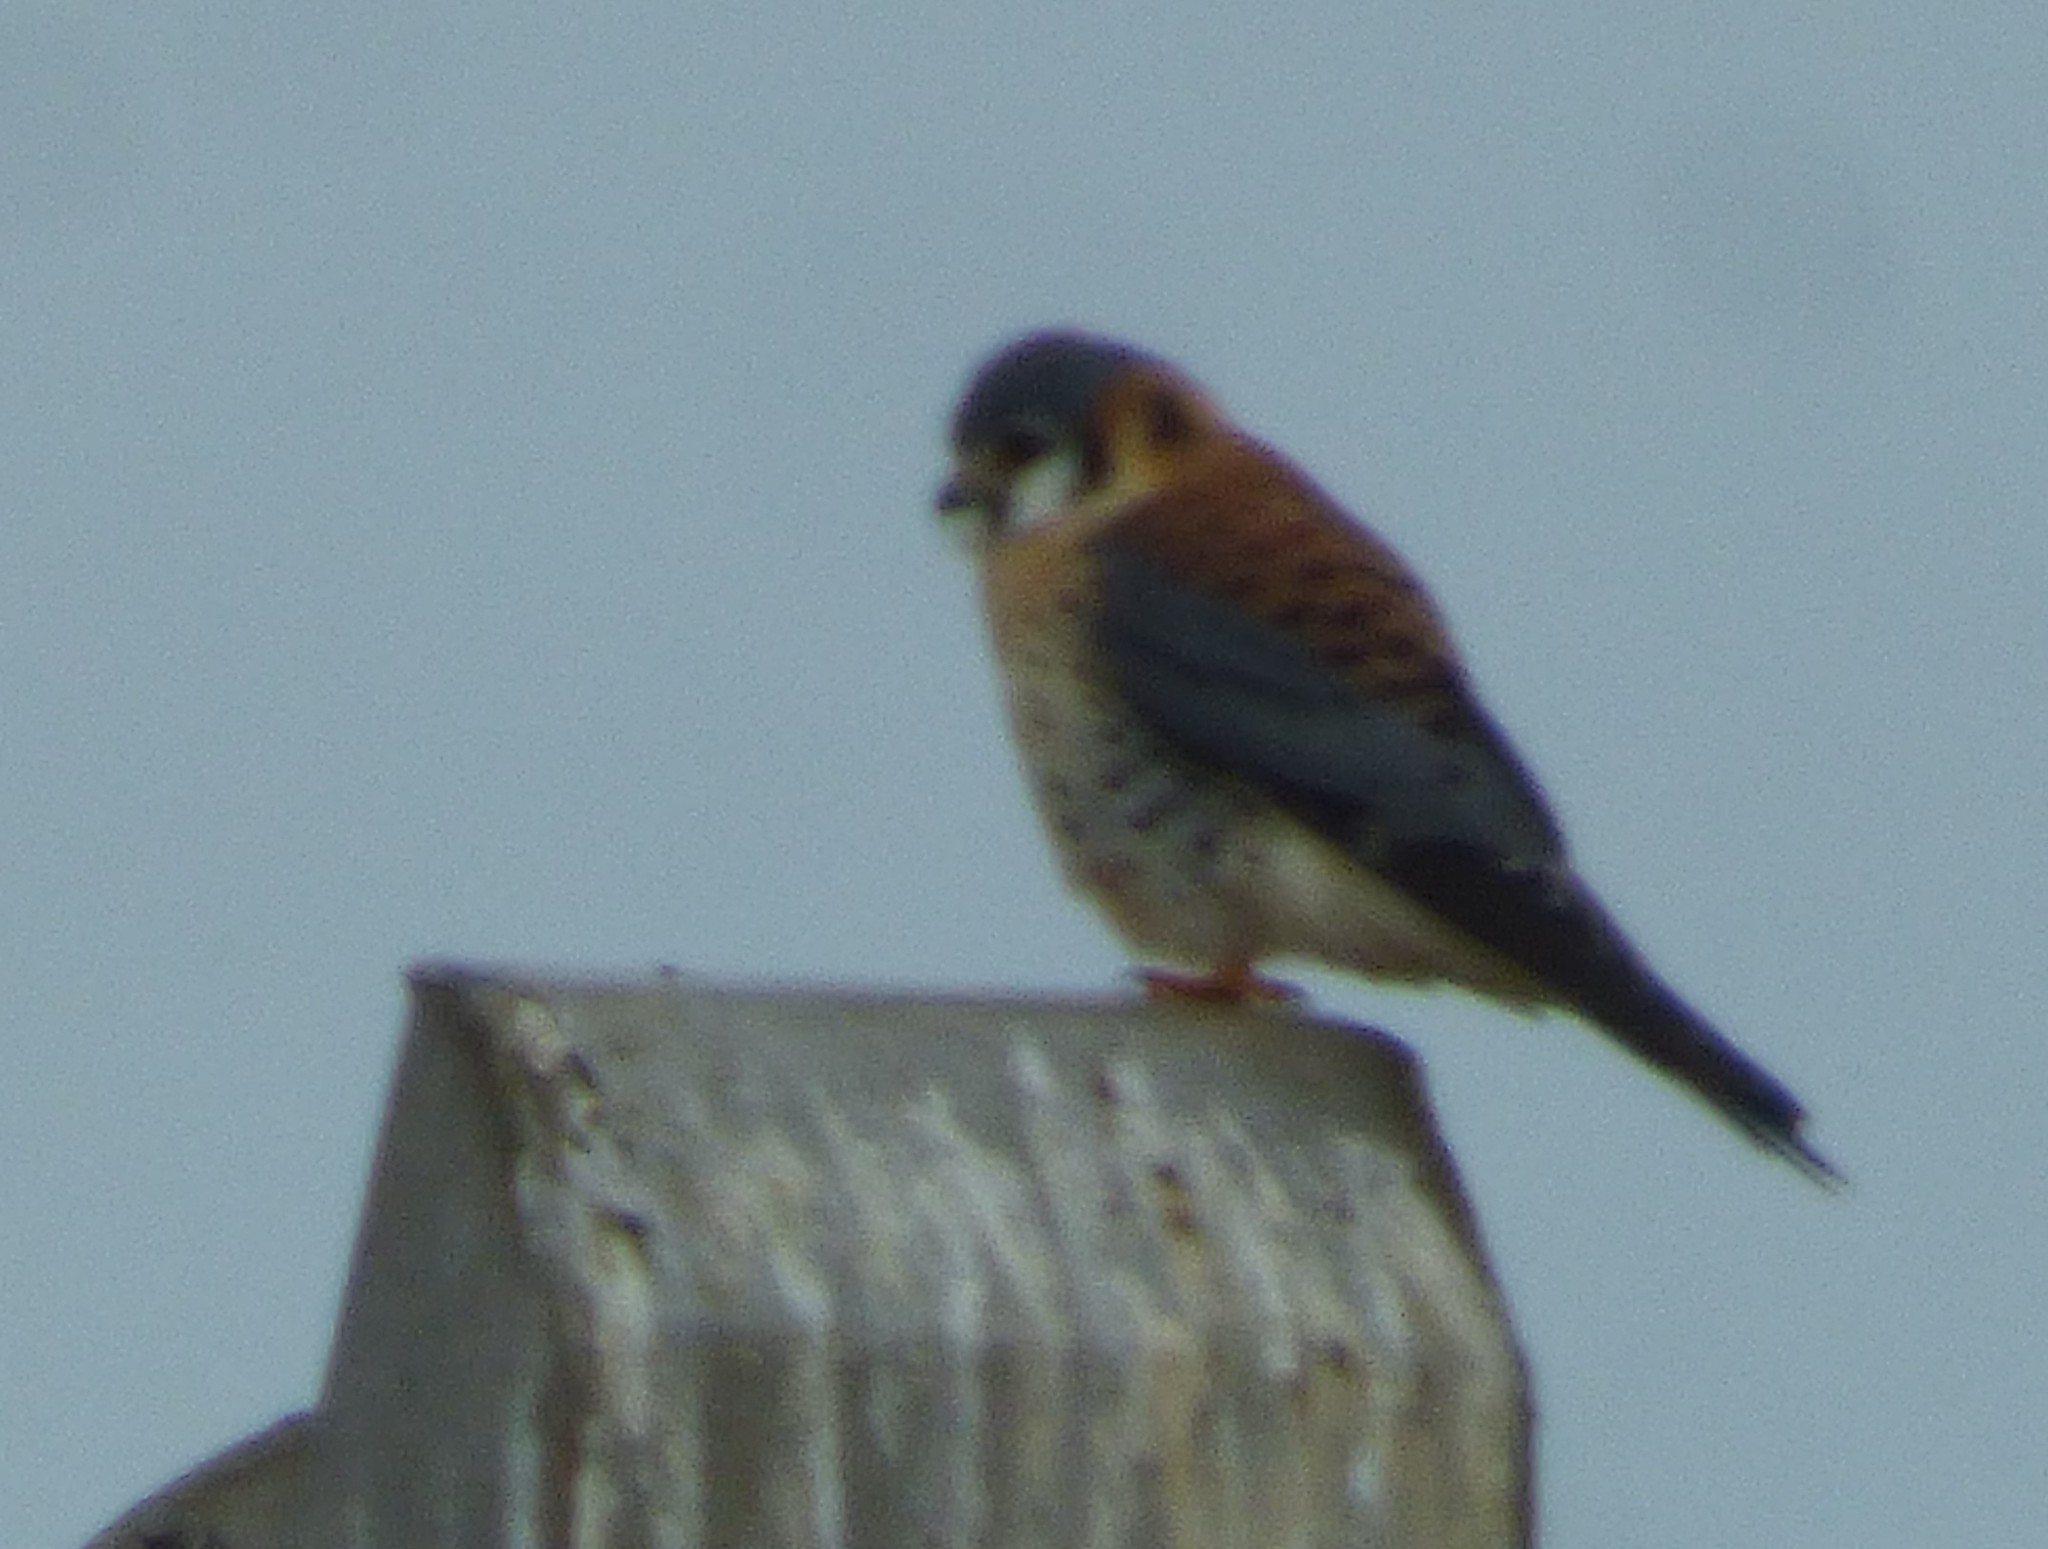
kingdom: Animalia
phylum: Chordata
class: Aves
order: Falconiformes
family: Falconidae
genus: Falco
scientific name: Falco sparverius
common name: American kestrel
